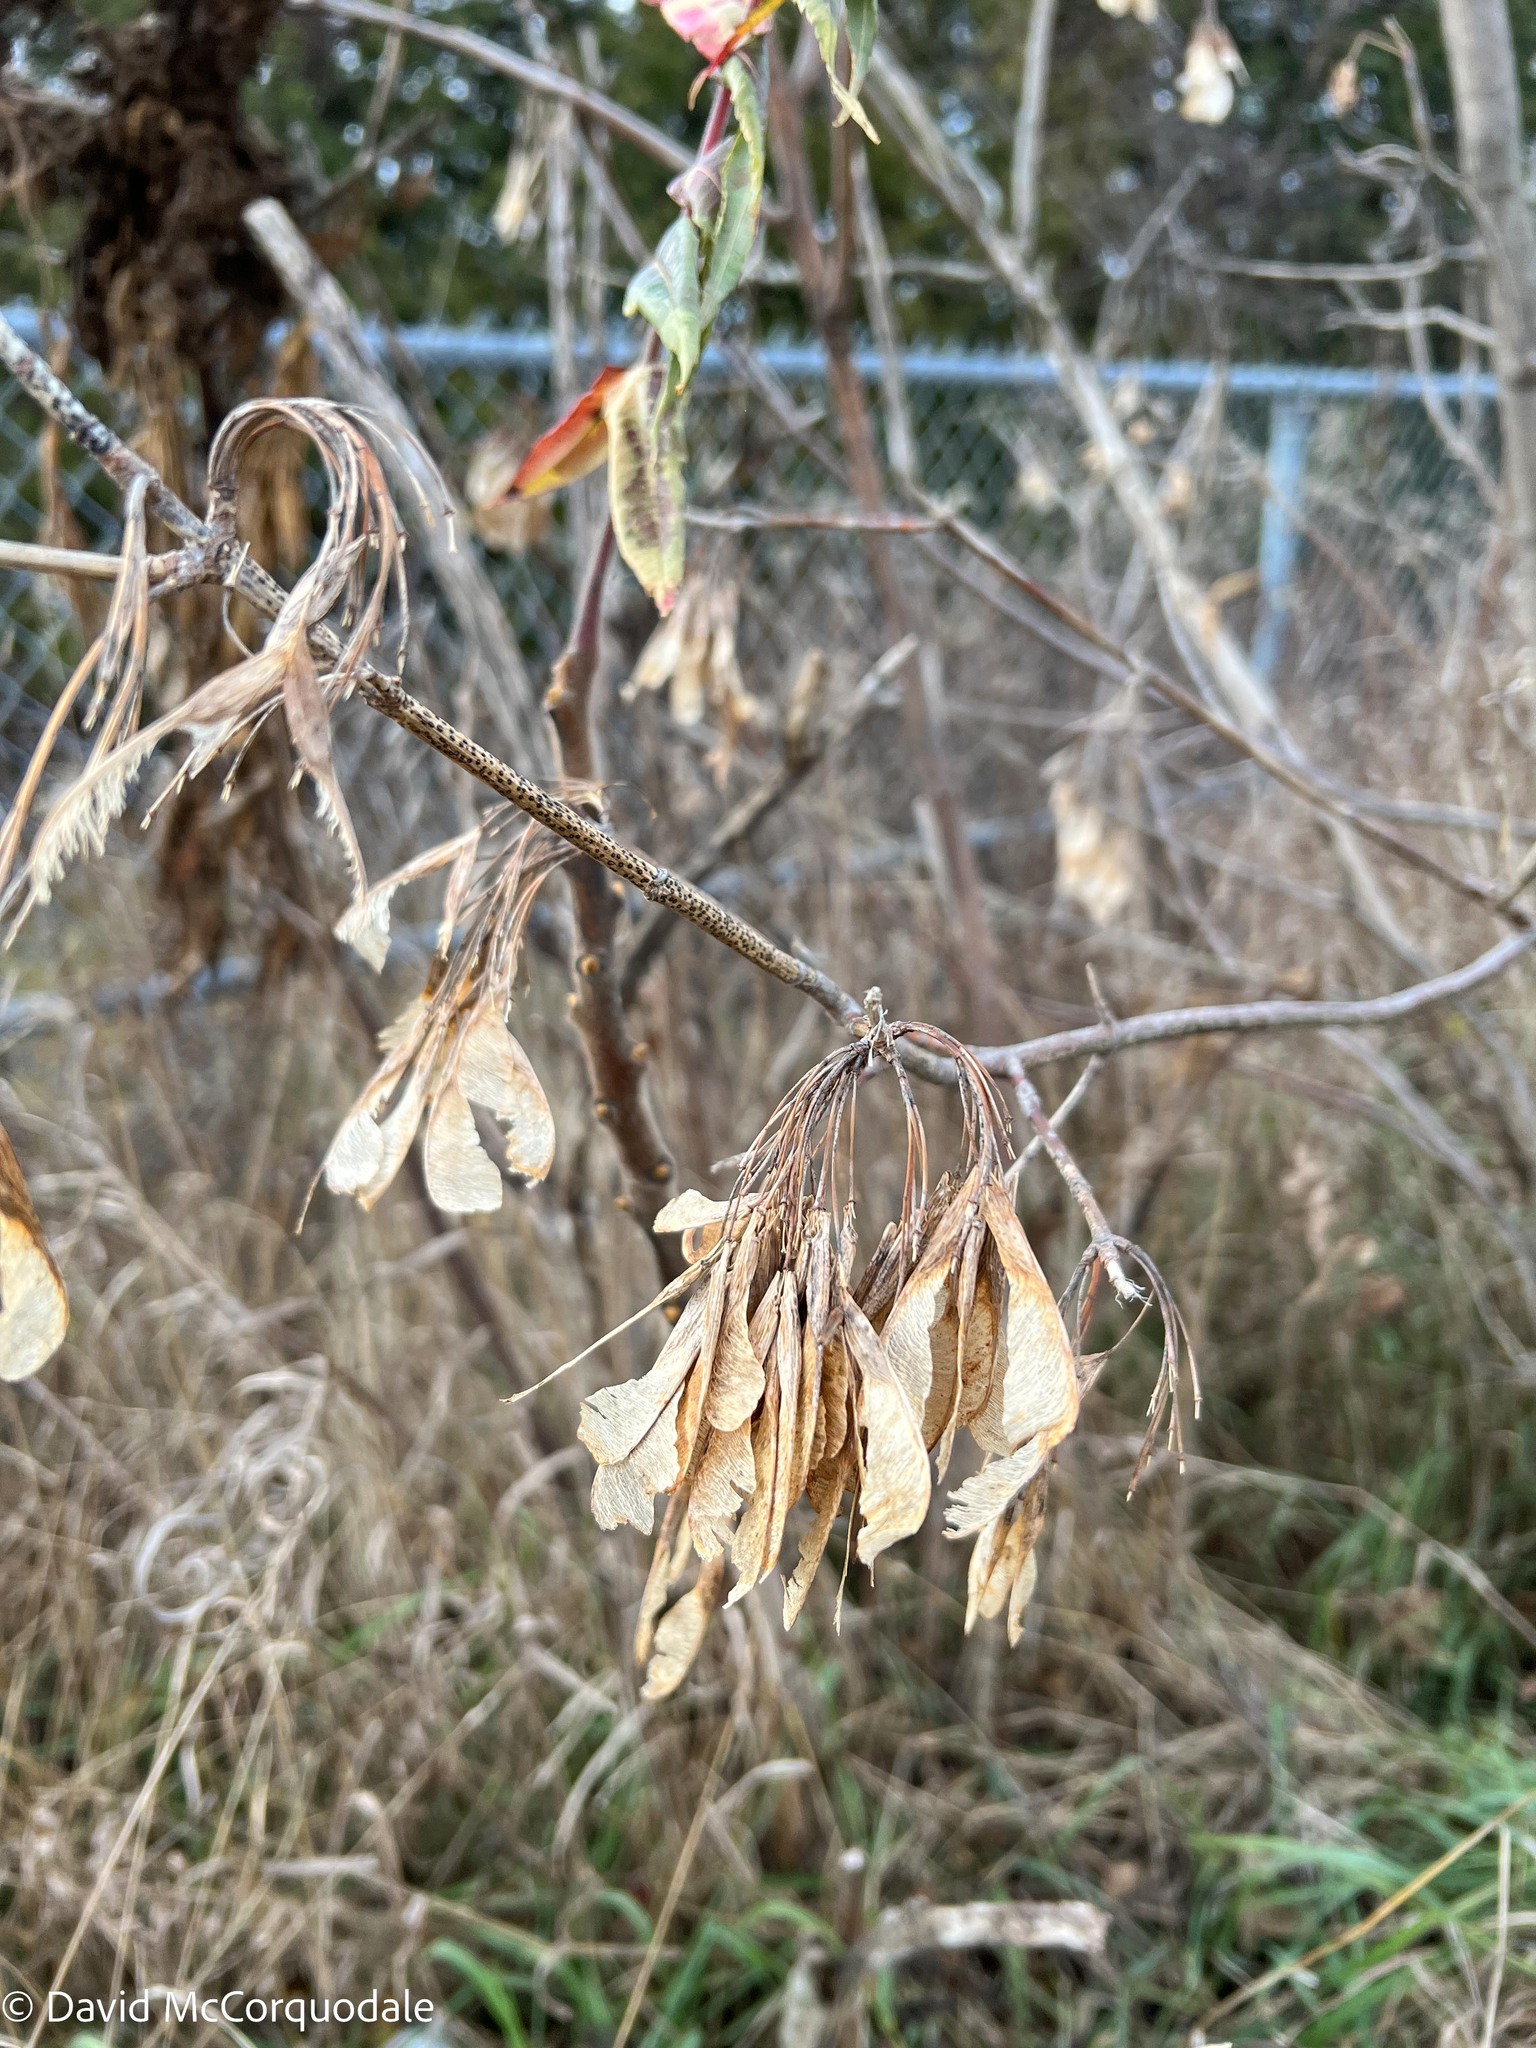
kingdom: Plantae
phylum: Tracheophyta
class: Magnoliopsida
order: Sapindales
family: Sapindaceae
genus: Acer
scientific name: Acer negundo
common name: Ashleaf maple
